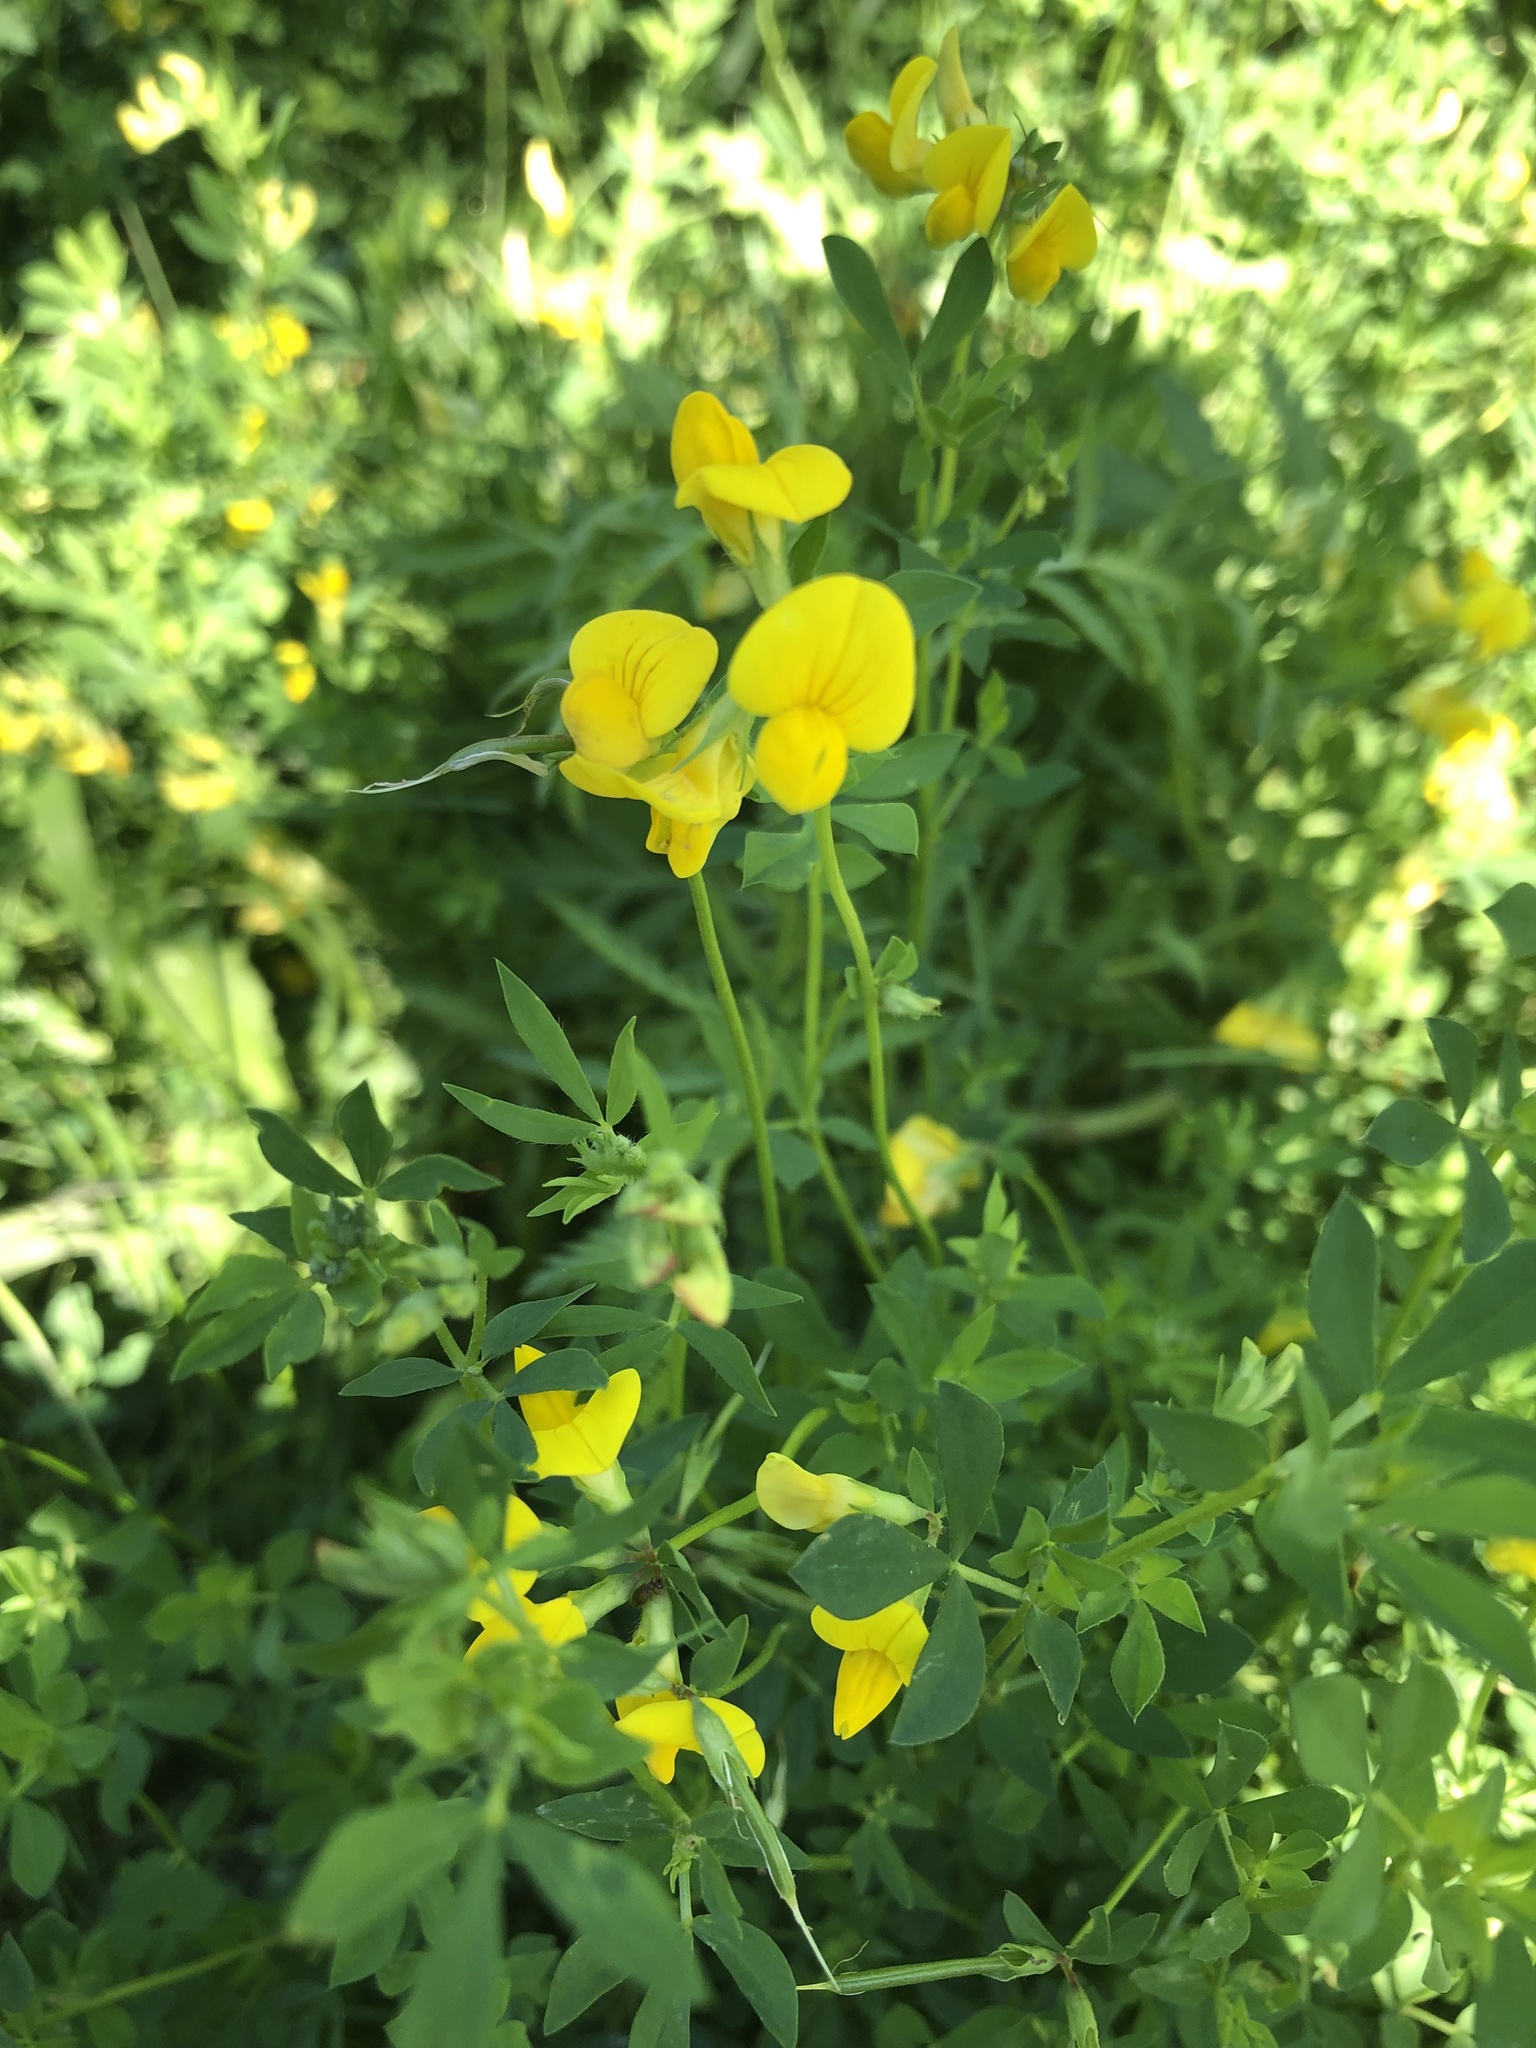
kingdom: Plantae
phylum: Tracheophyta
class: Magnoliopsida
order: Fabales
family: Fabaceae
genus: Lotus
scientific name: Lotus corniculatus
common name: Common bird's-foot-trefoil
